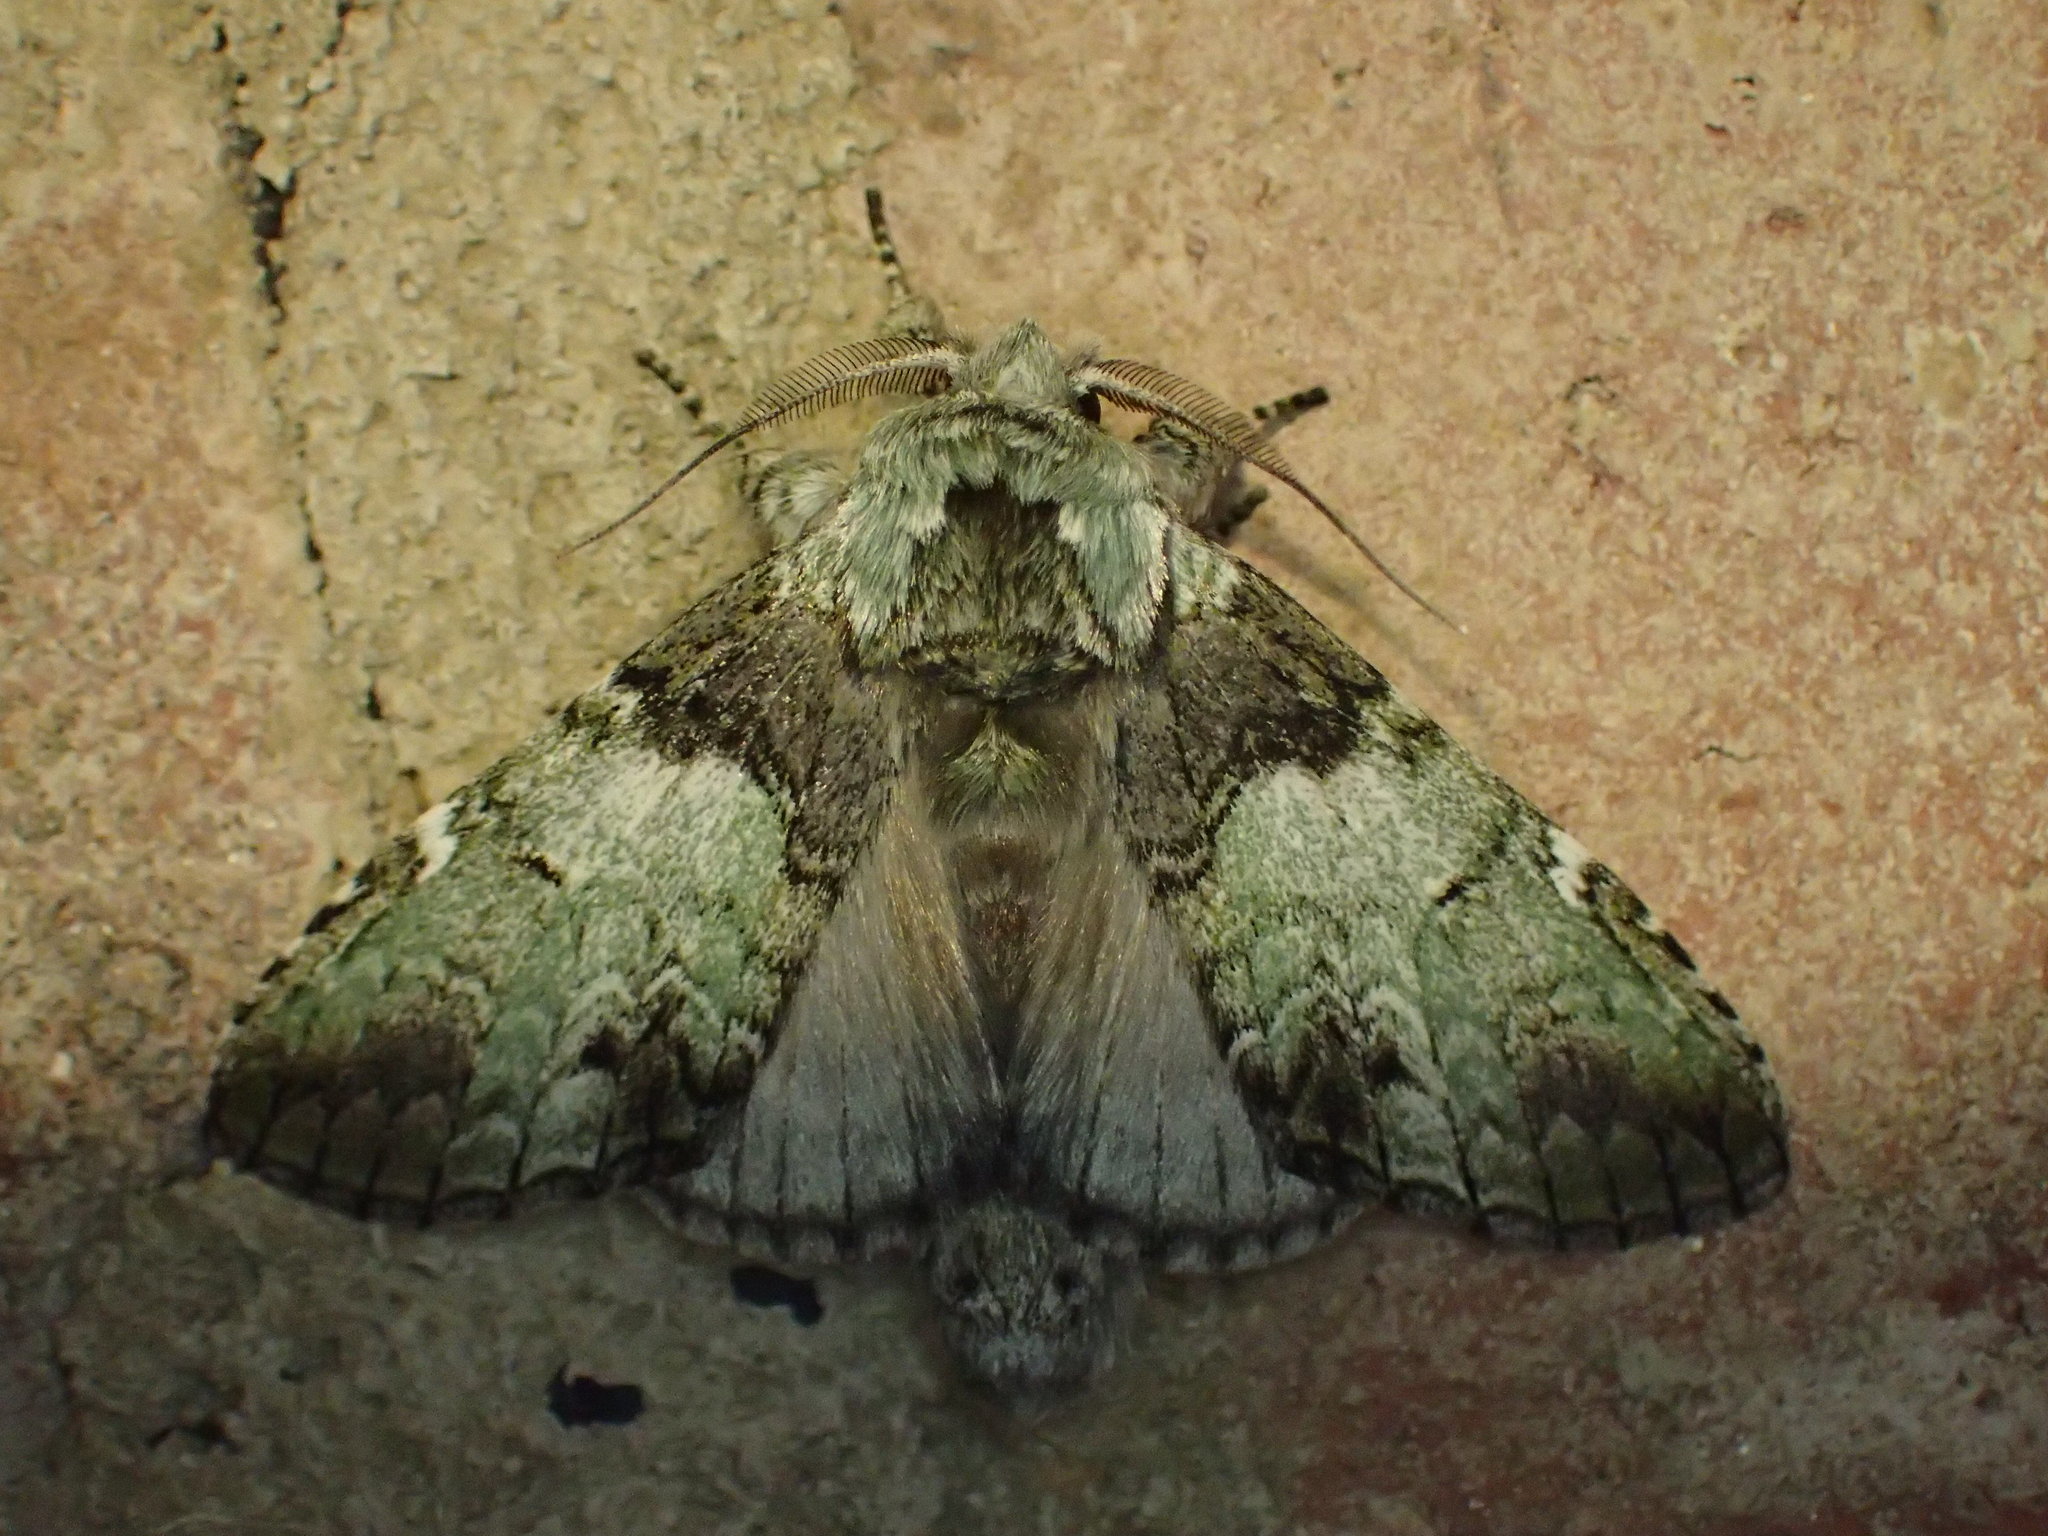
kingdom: Animalia
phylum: Arthropoda
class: Insecta
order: Lepidoptera
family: Notodontidae
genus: Macrurocampa
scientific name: Macrurocampa marthesia
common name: Mottled prominent
